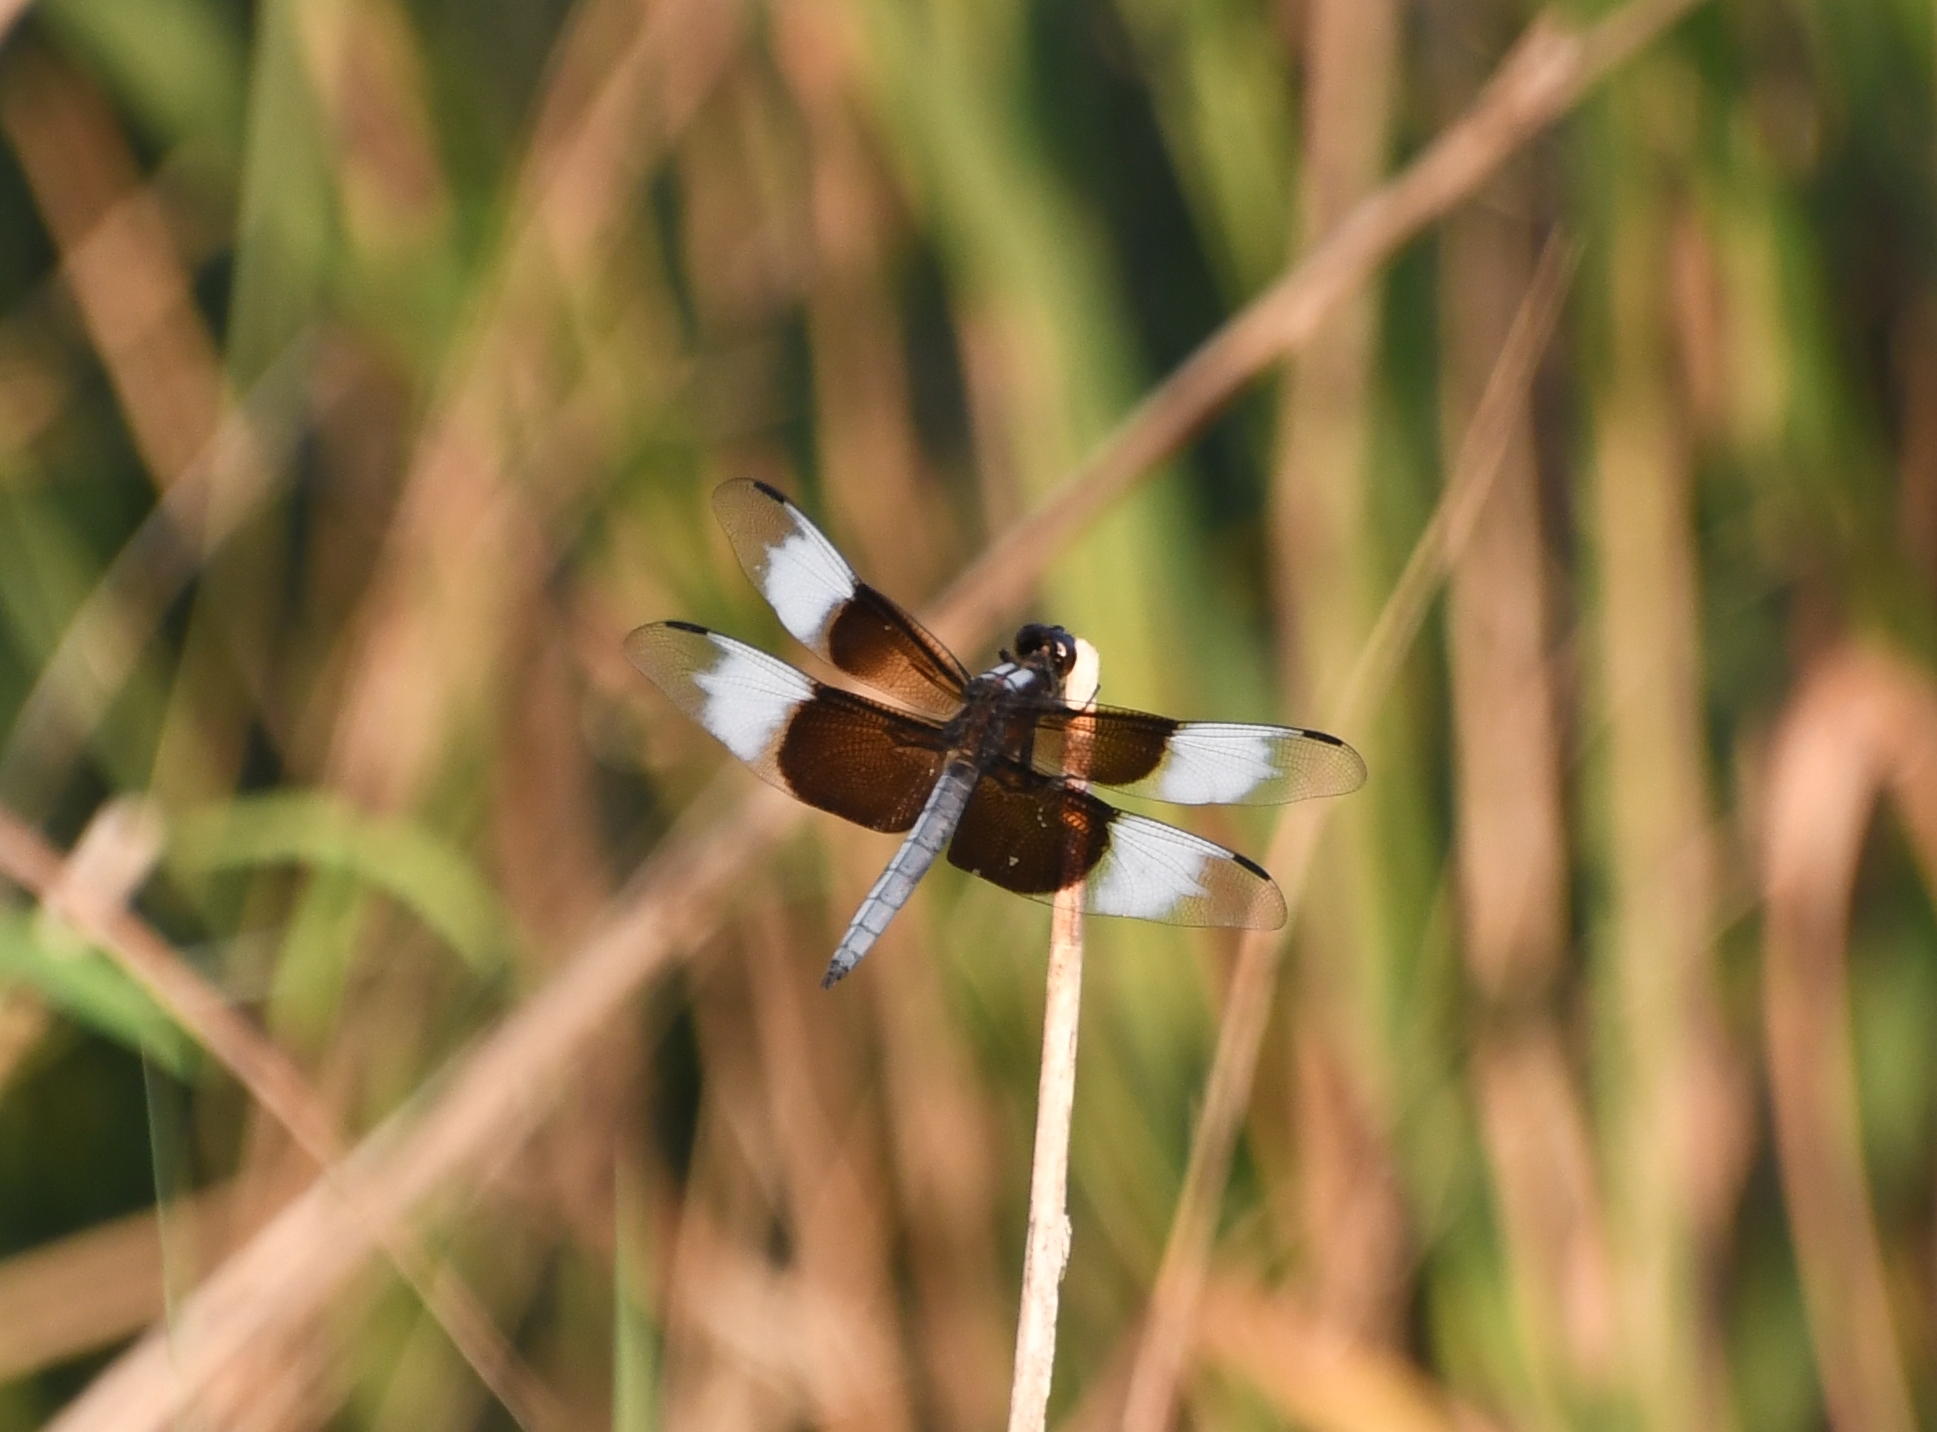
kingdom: Animalia
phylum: Arthropoda
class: Insecta
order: Odonata
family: Libellulidae
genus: Libellula
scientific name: Libellula luctuosa
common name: Widow skimmer
